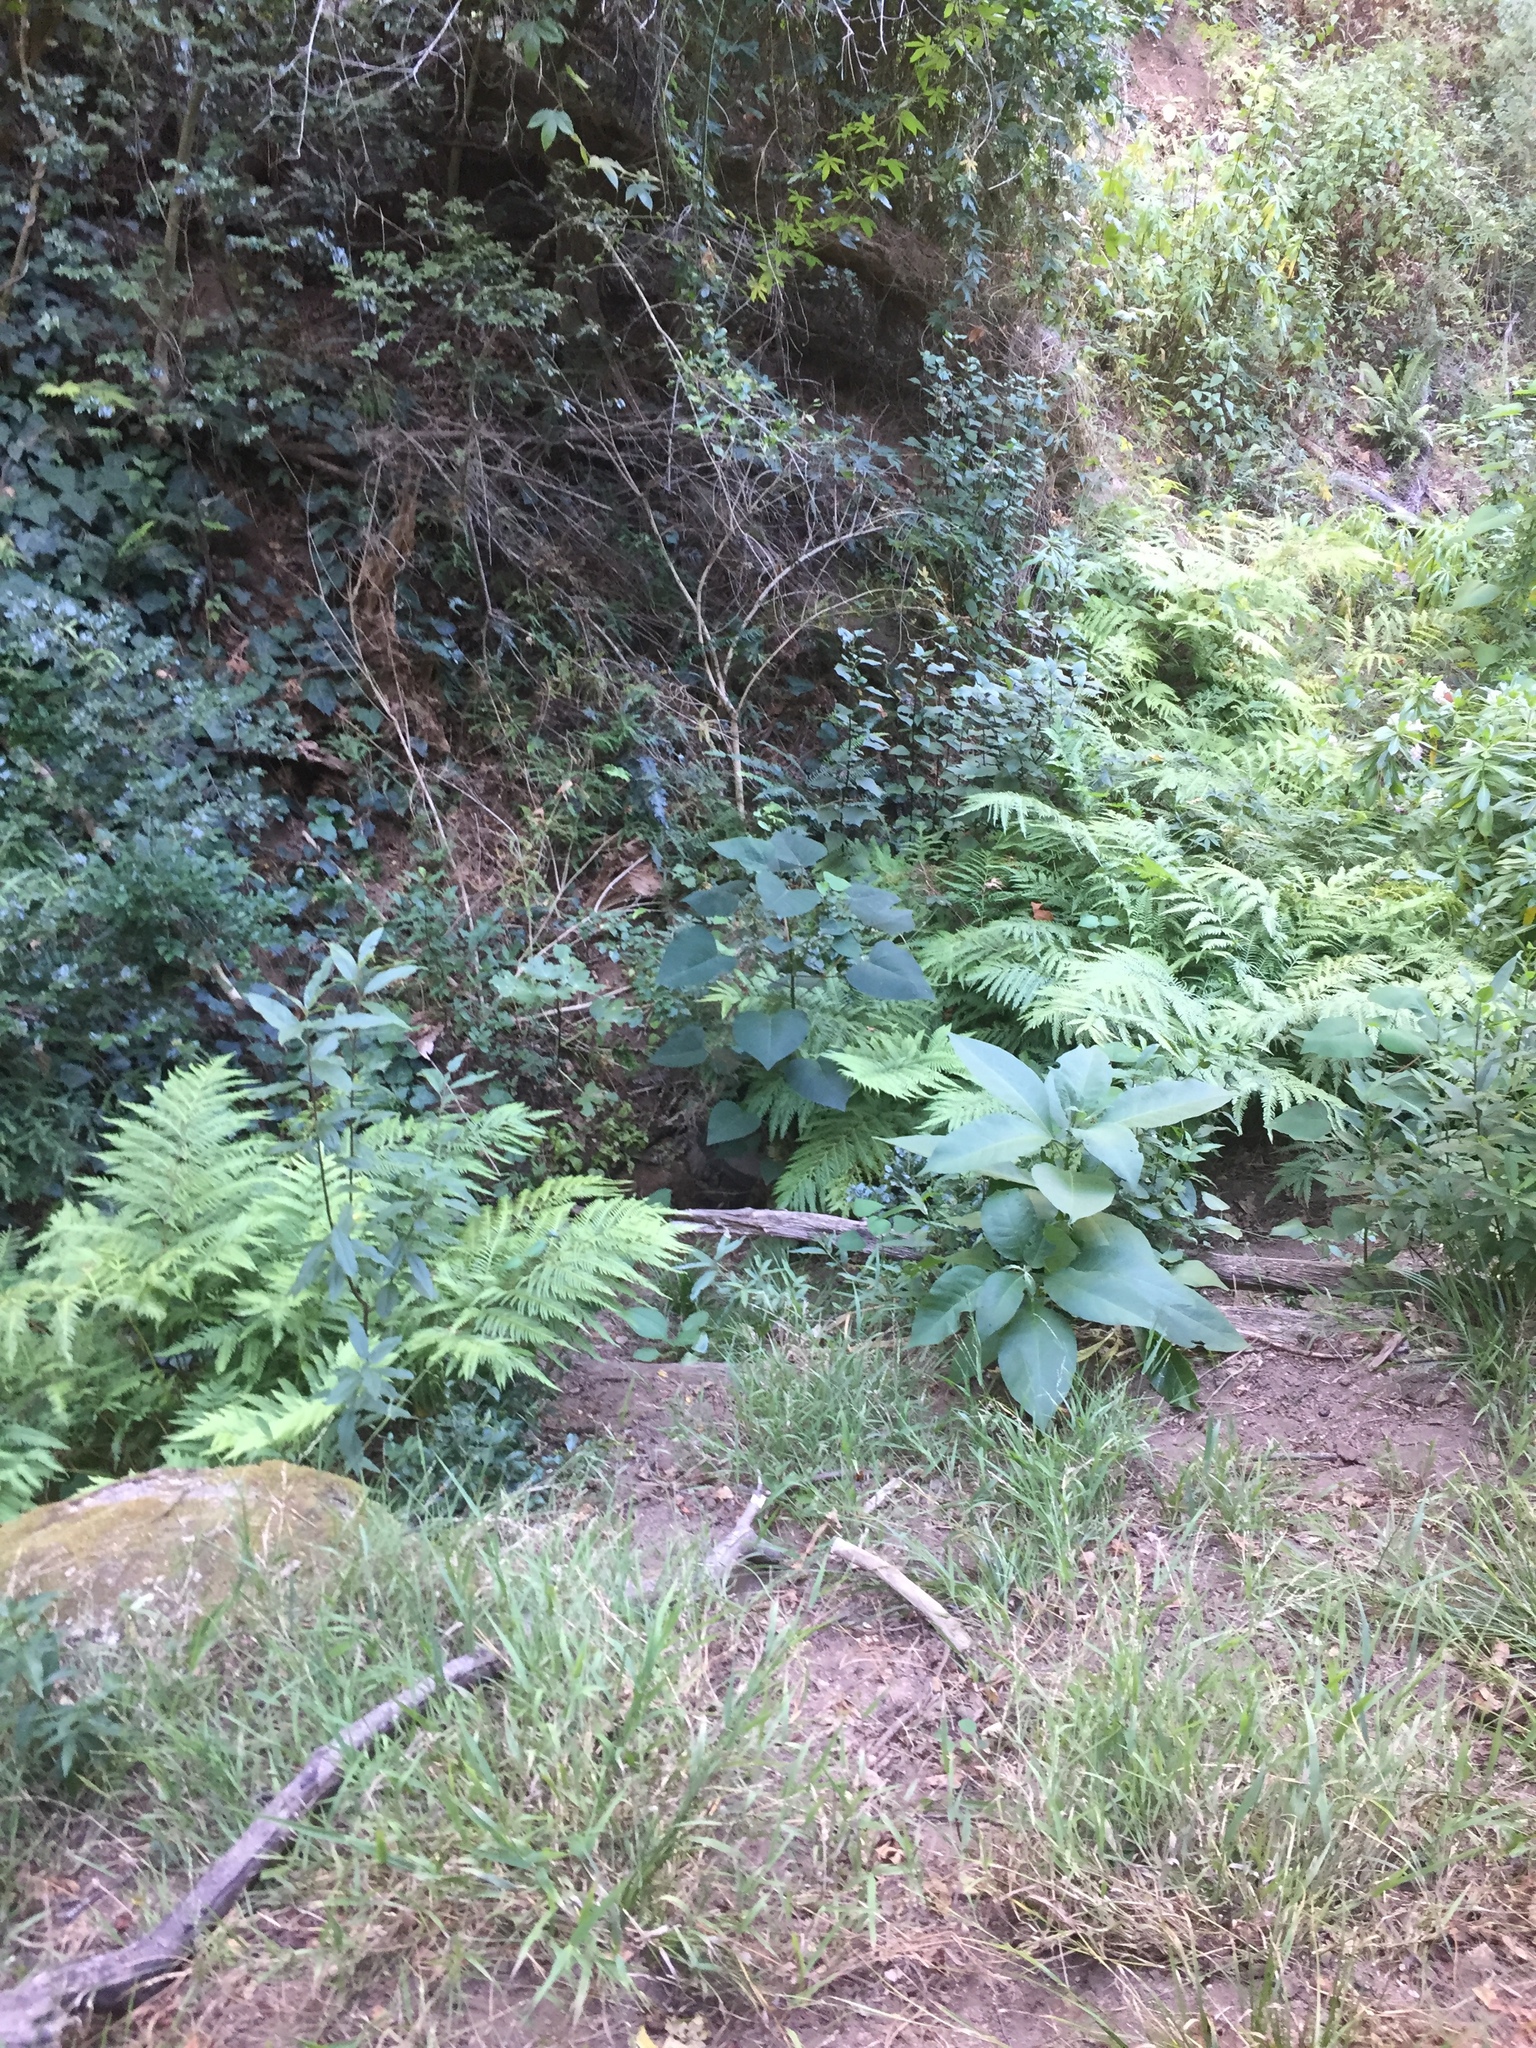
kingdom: Plantae
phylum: Tracheophyta
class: Magnoliopsida
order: Malpighiales
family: Euphorbiaceae
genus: Homalanthus
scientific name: Homalanthus populifolius
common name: Queensland poplar
